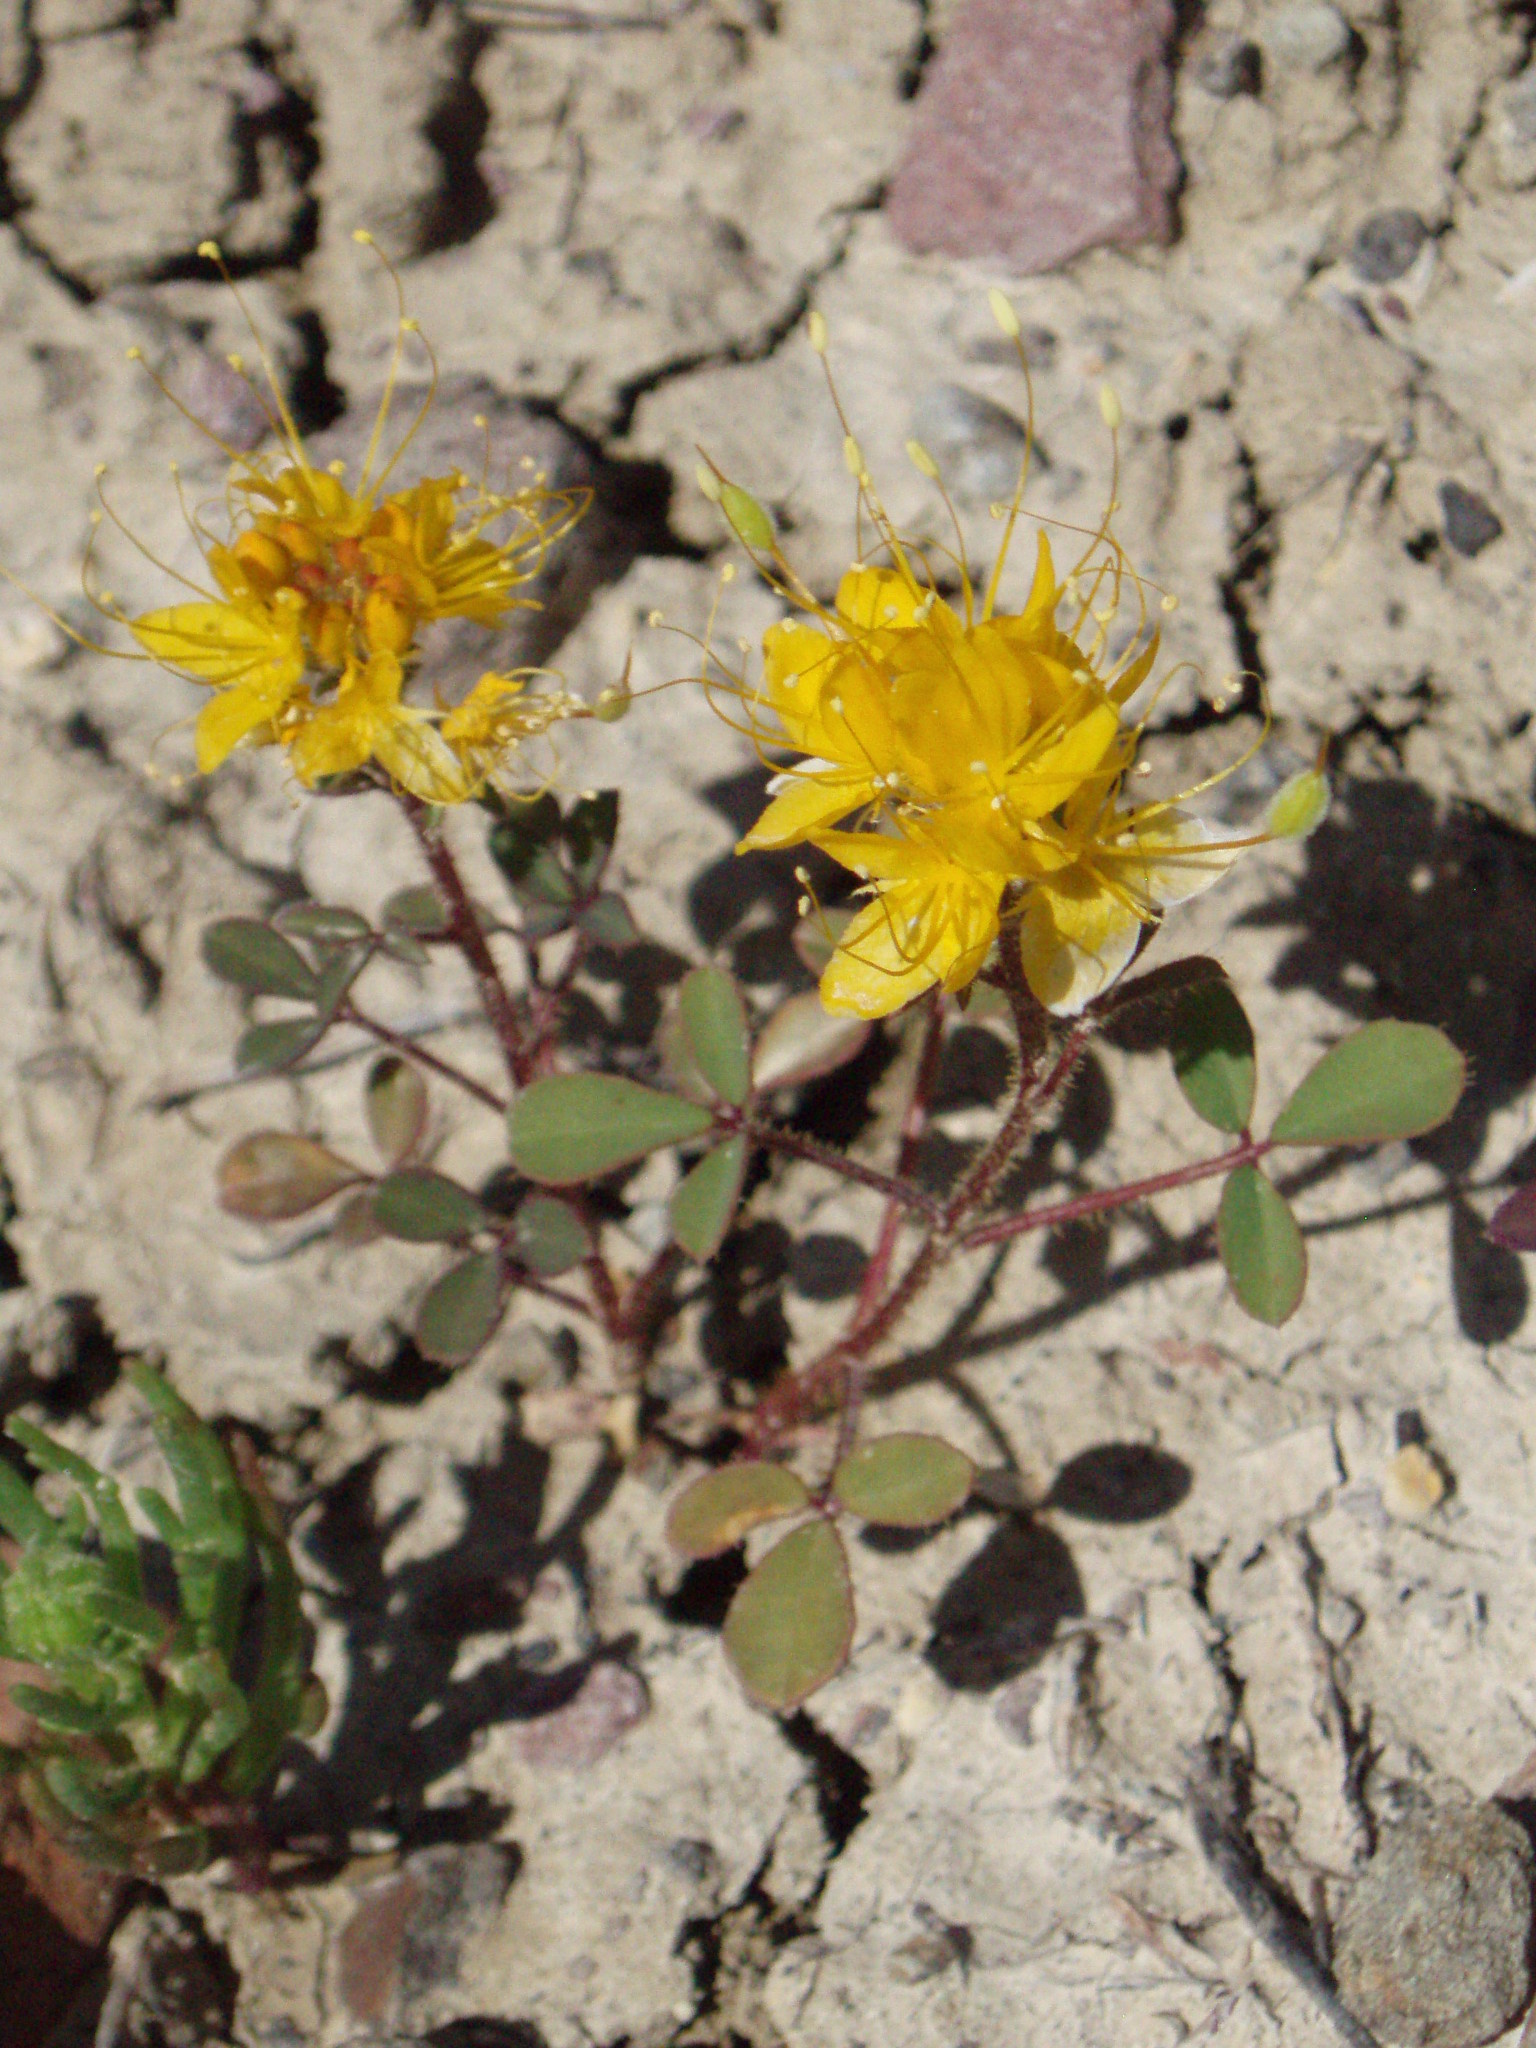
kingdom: Plantae
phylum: Tracheophyta
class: Magnoliopsida
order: Brassicales
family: Cleomaceae
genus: Cleomella
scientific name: Cleomella platycarpa
